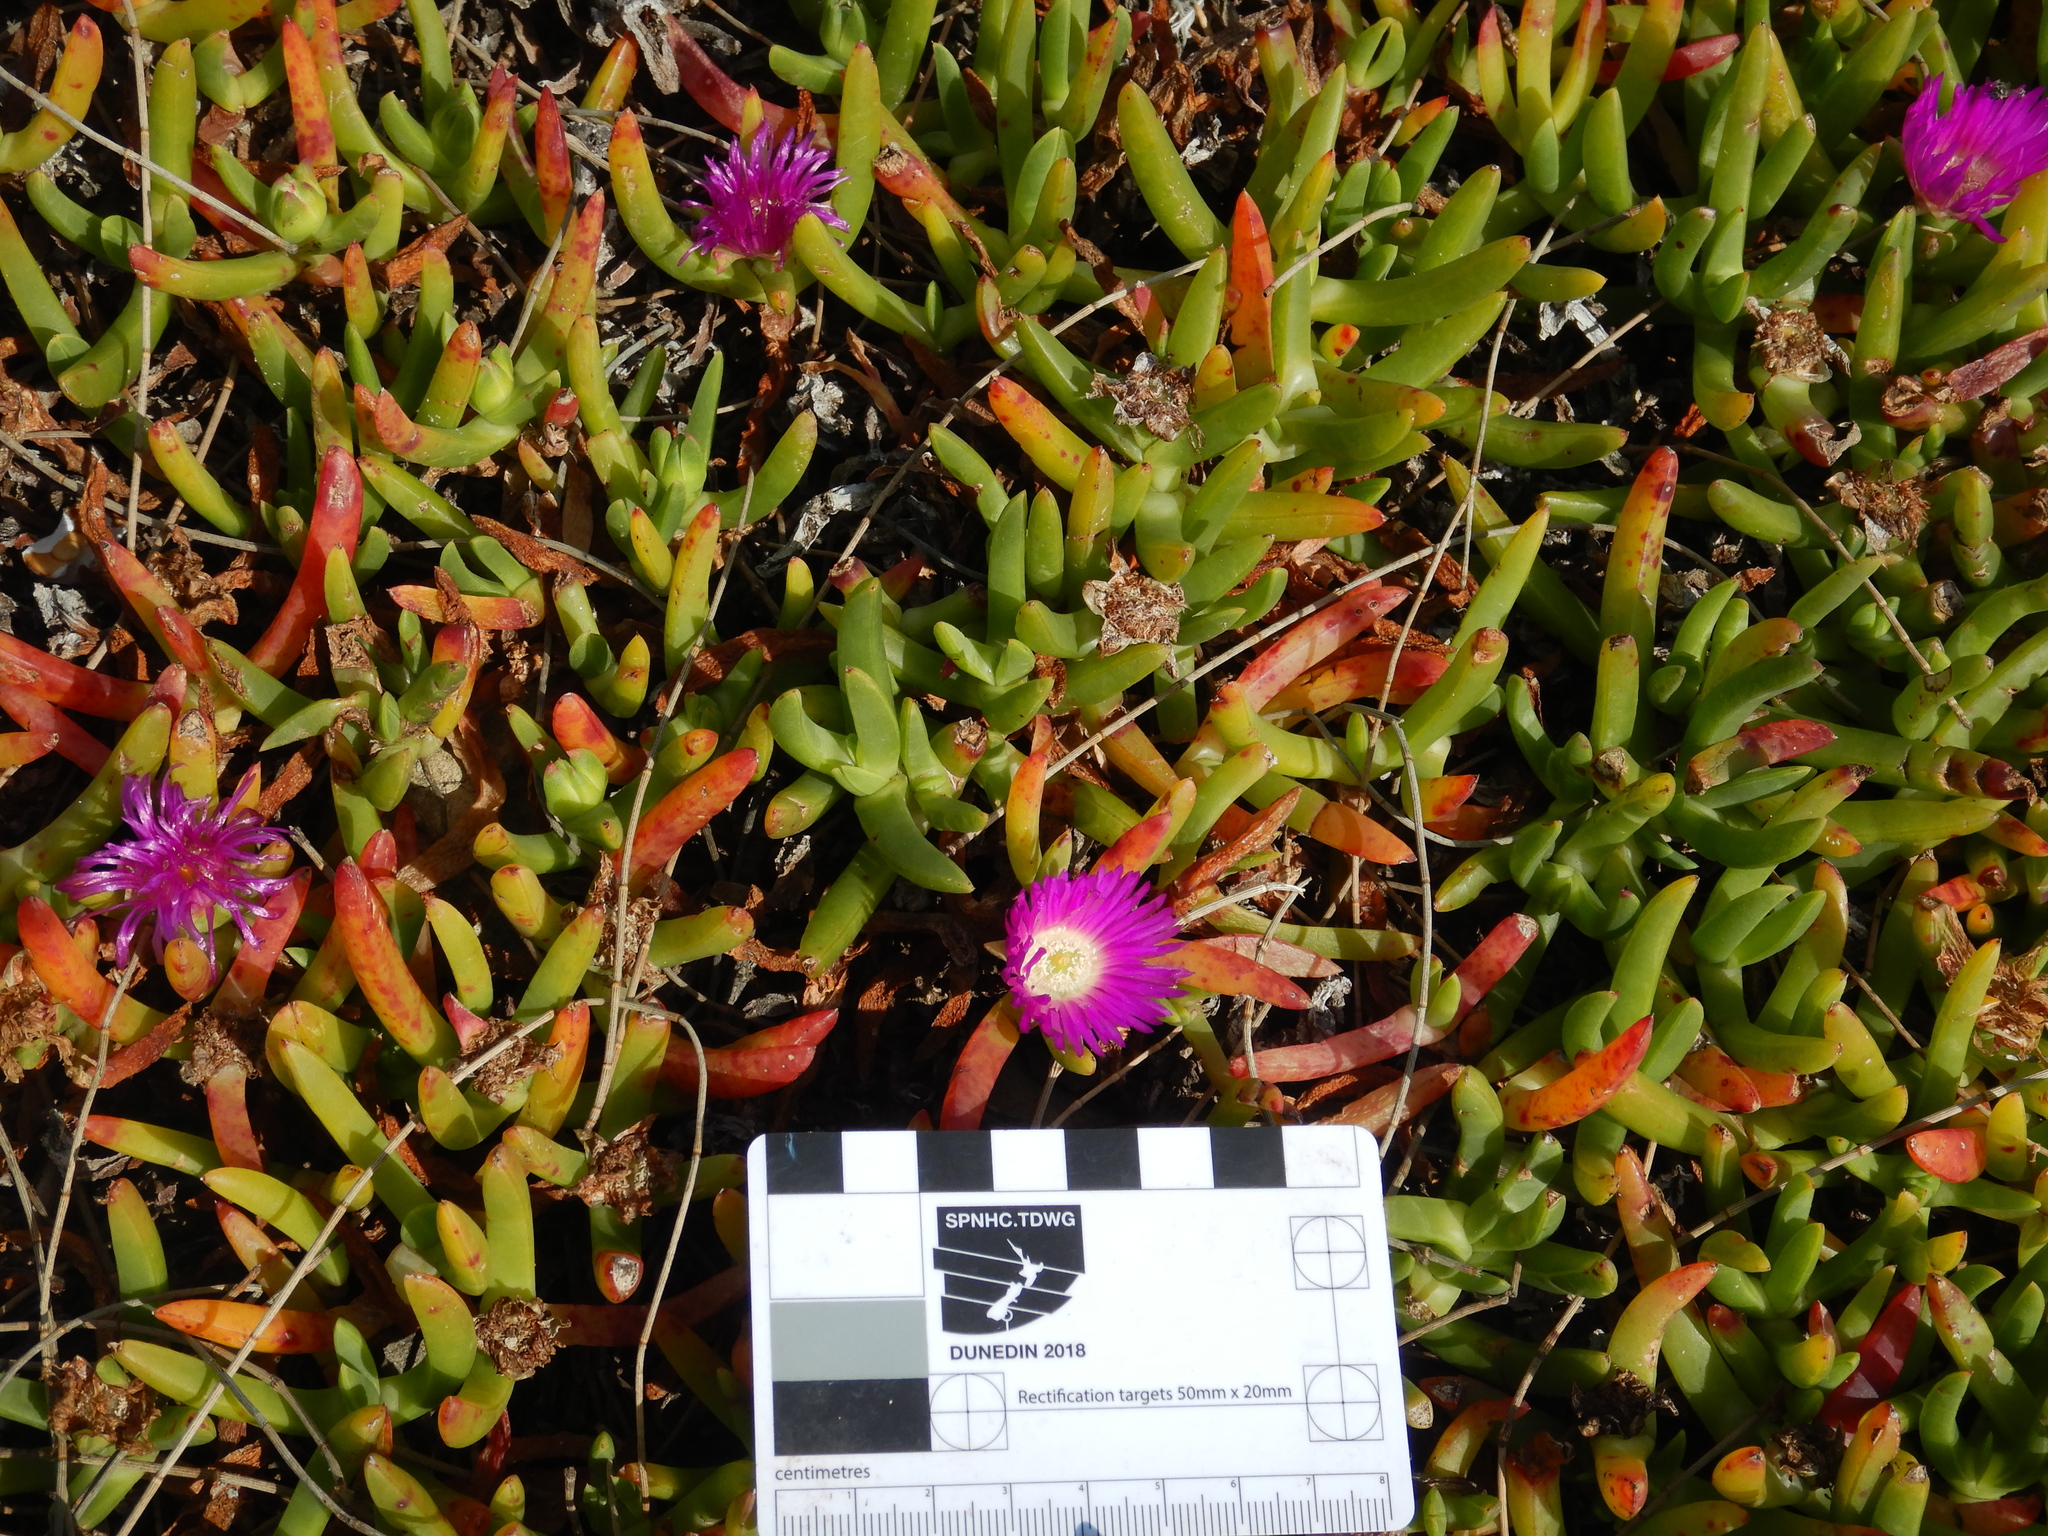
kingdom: Plantae
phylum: Tracheophyta
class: Magnoliopsida
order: Caryophyllales
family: Aizoaceae
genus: Carpobrotus
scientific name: Carpobrotus rossii
